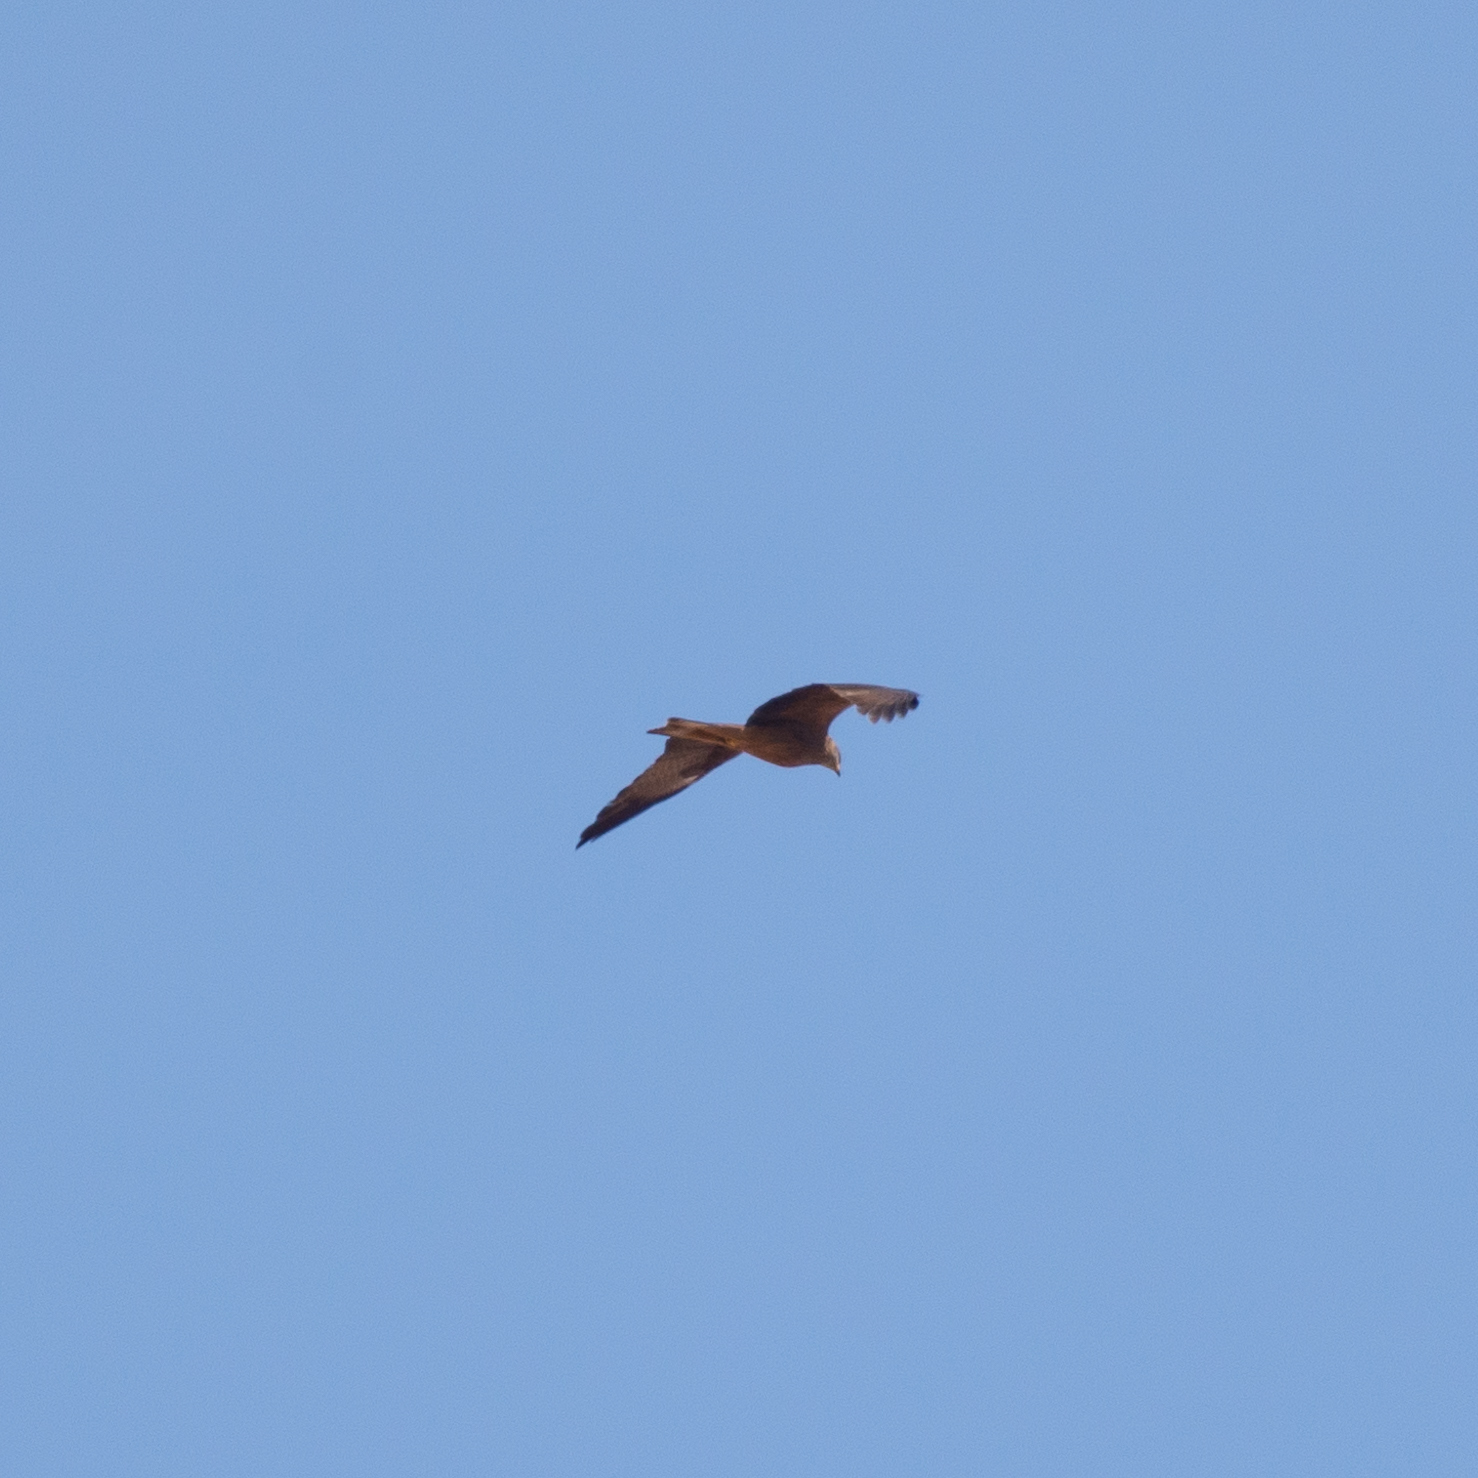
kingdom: Animalia
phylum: Chordata
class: Aves
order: Accipitriformes
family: Accipitridae
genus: Milvus
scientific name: Milvus migrans
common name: Black kite
